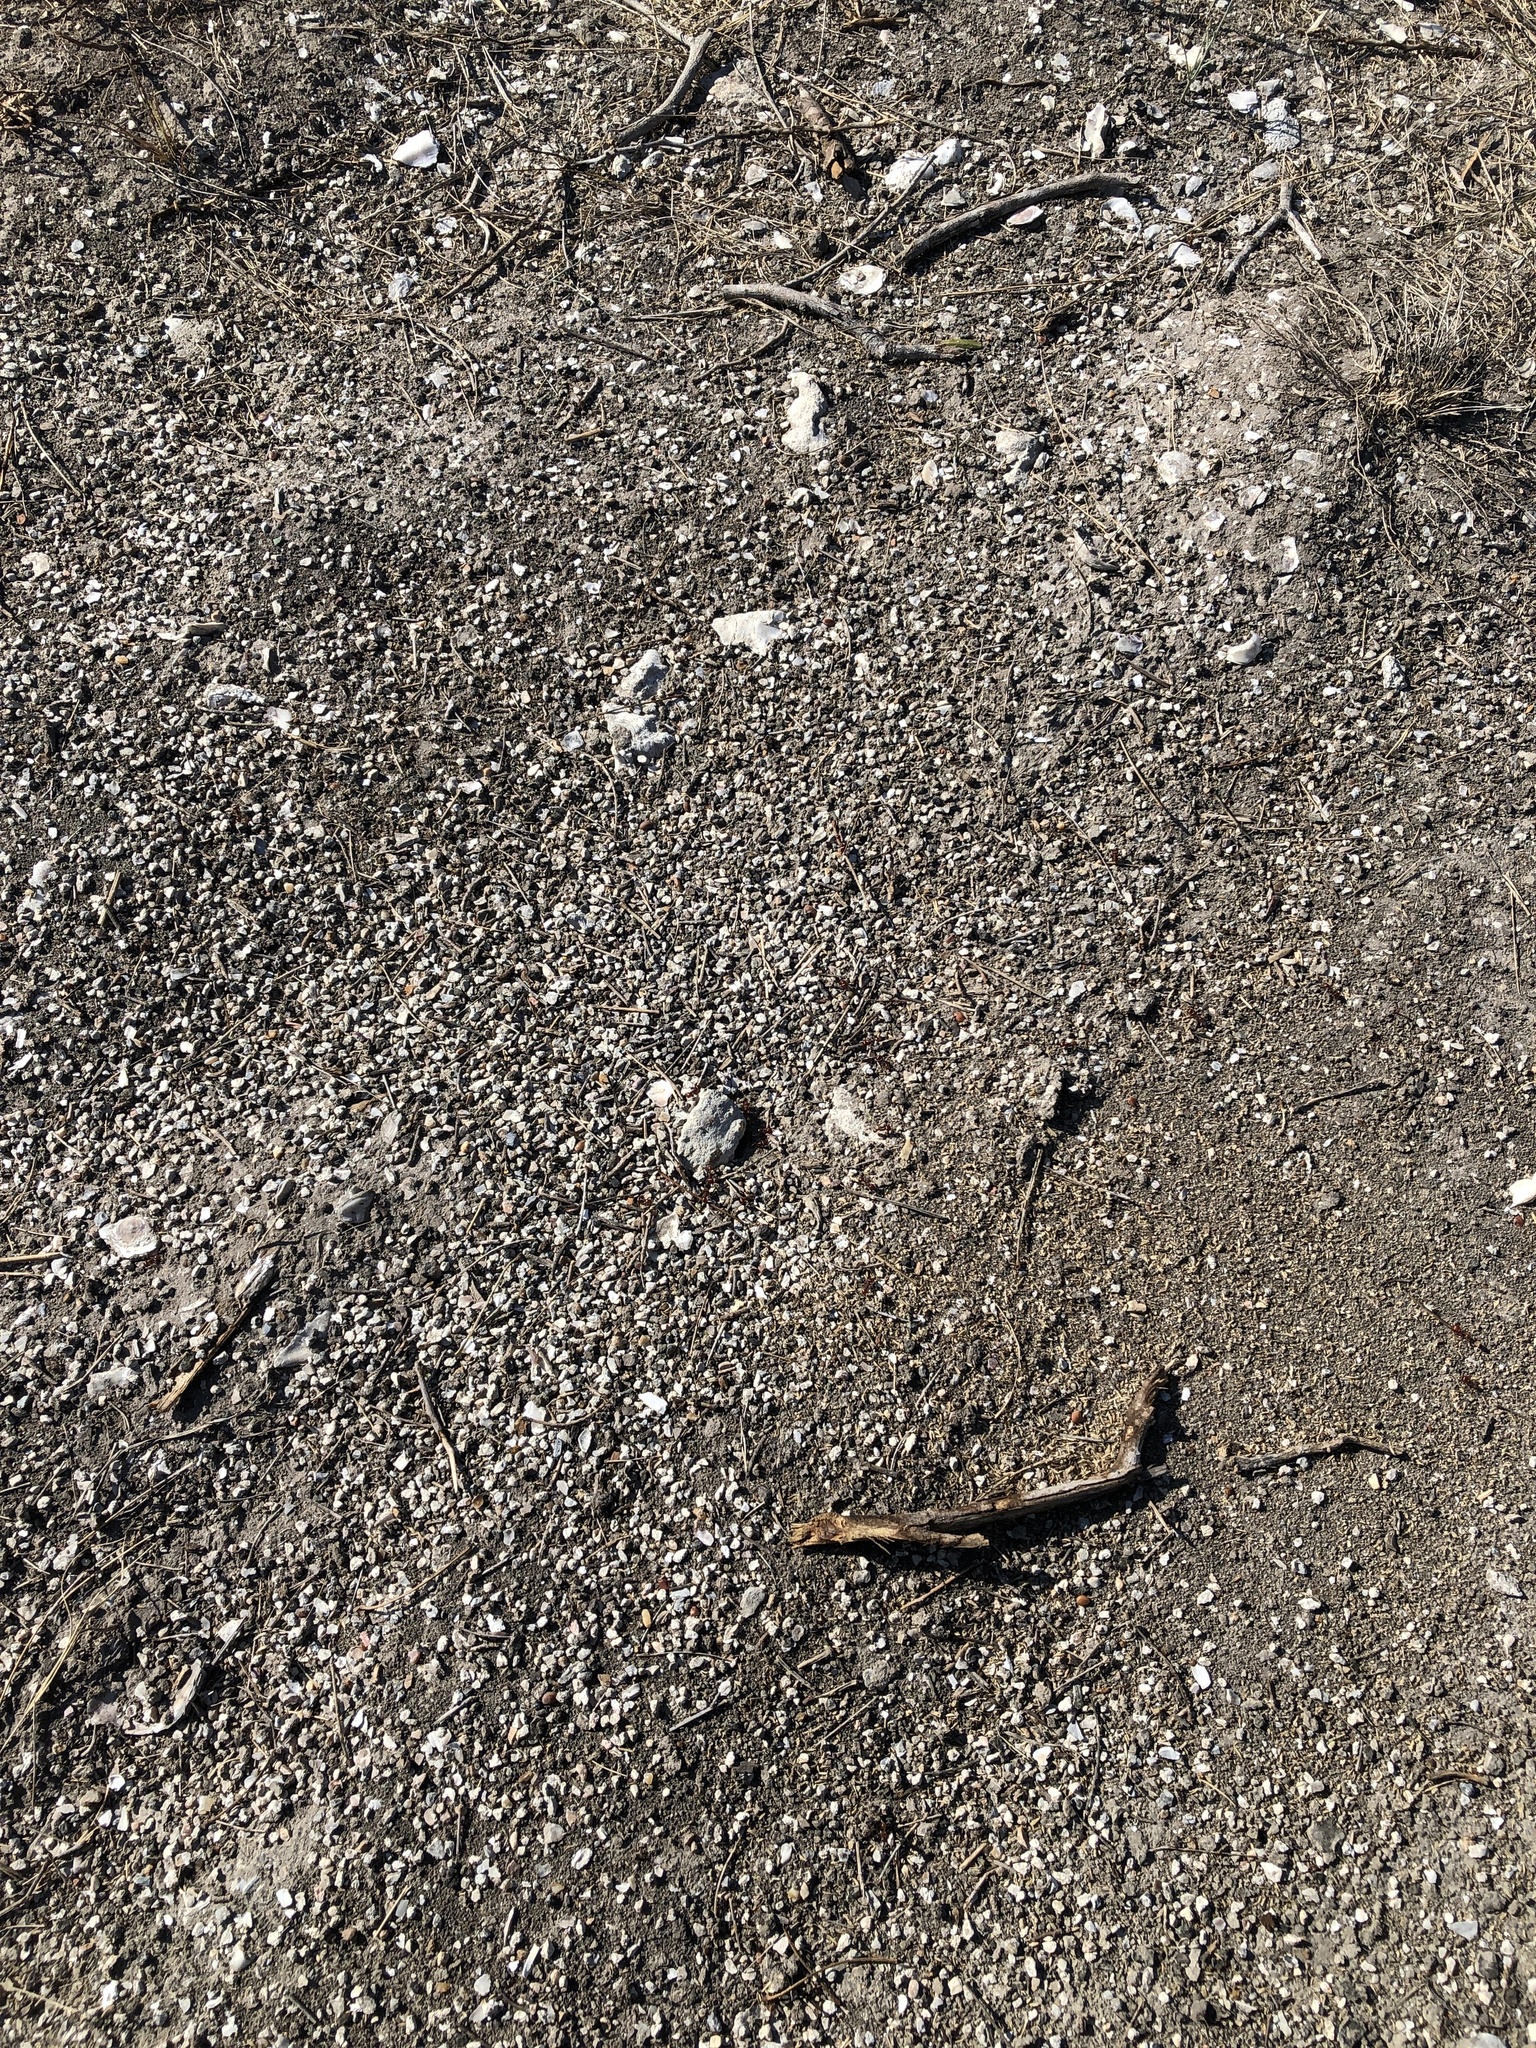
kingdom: Animalia
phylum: Arthropoda
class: Insecta
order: Hymenoptera
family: Formicidae
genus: Pogonomyrmex
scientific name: Pogonomyrmex barbatus
